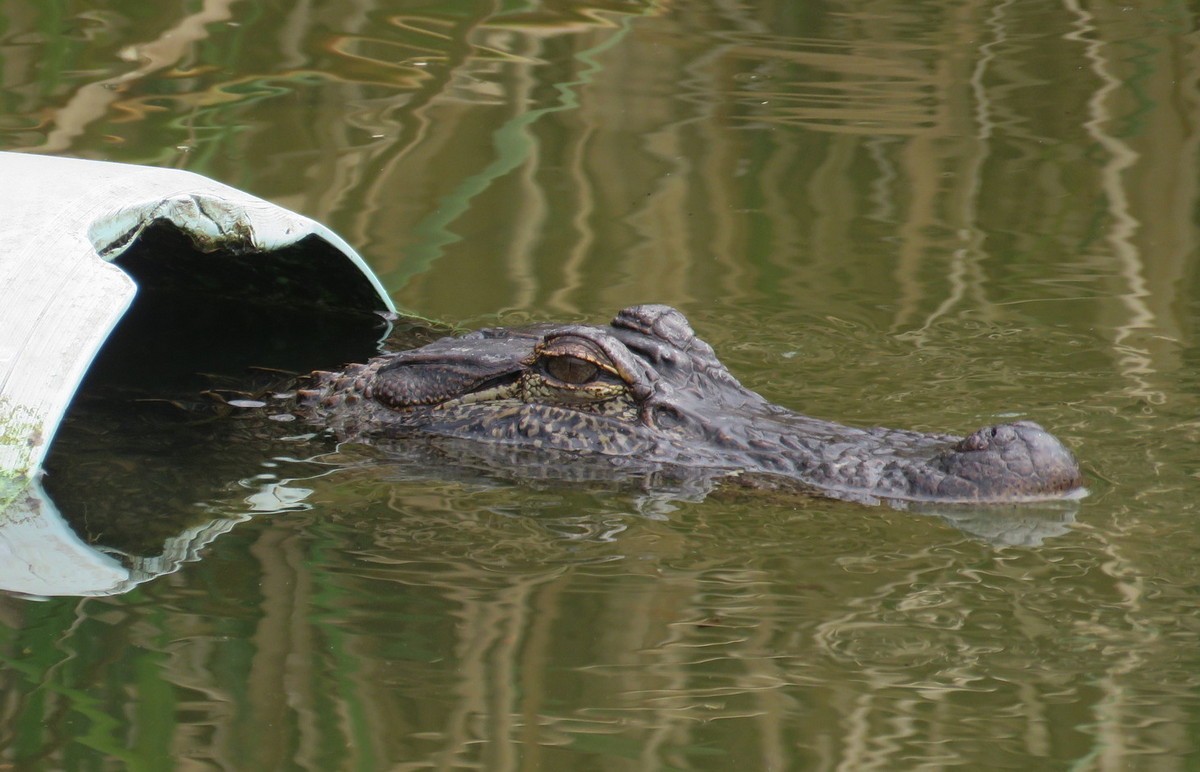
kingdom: Animalia
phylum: Chordata
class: Crocodylia
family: Alligatoridae
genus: Alligator
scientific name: Alligator mississippiensis
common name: American alligator
